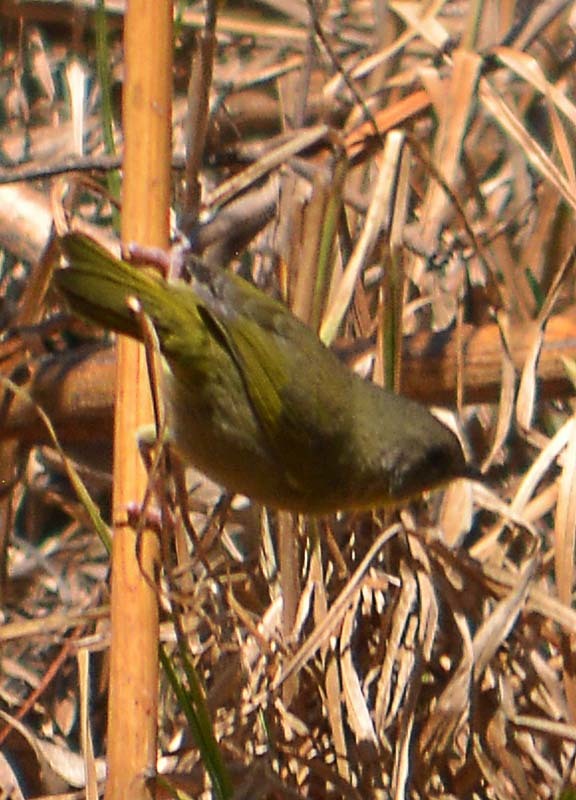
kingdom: Animalia
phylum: Chordata
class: Aves
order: Passeriformes
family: Parulidae
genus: Geothlypis
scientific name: Geothlypis trichas
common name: Common yellowthroat
